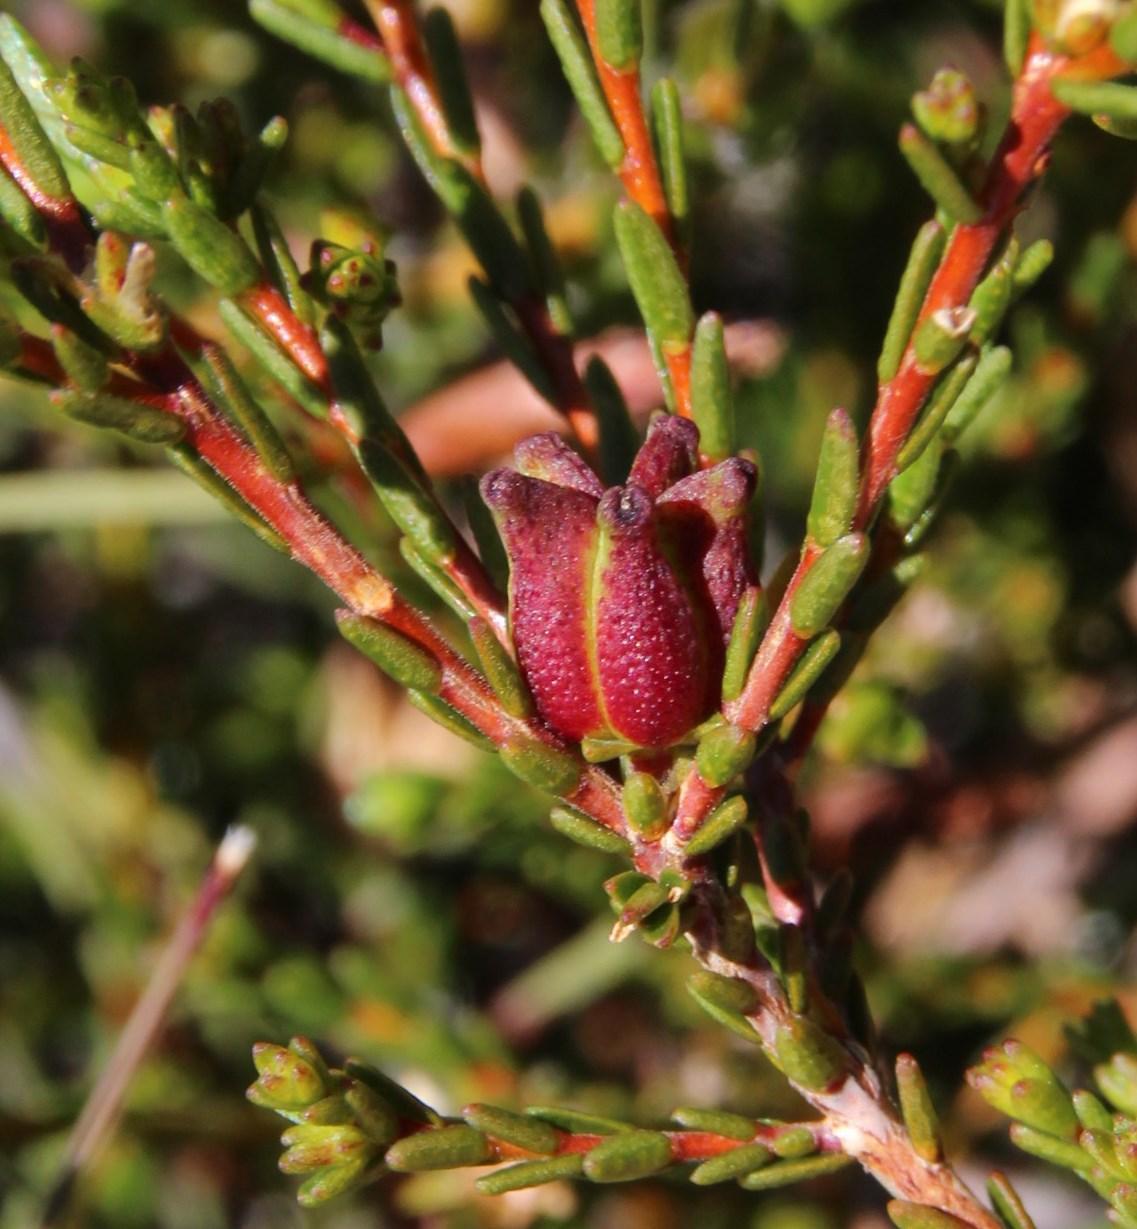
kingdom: Plantae
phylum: Tracheophyta
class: Magnoliopsida
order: Sapindales
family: Rutaceae
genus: Euchaetis
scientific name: Euchaetis elsieae
